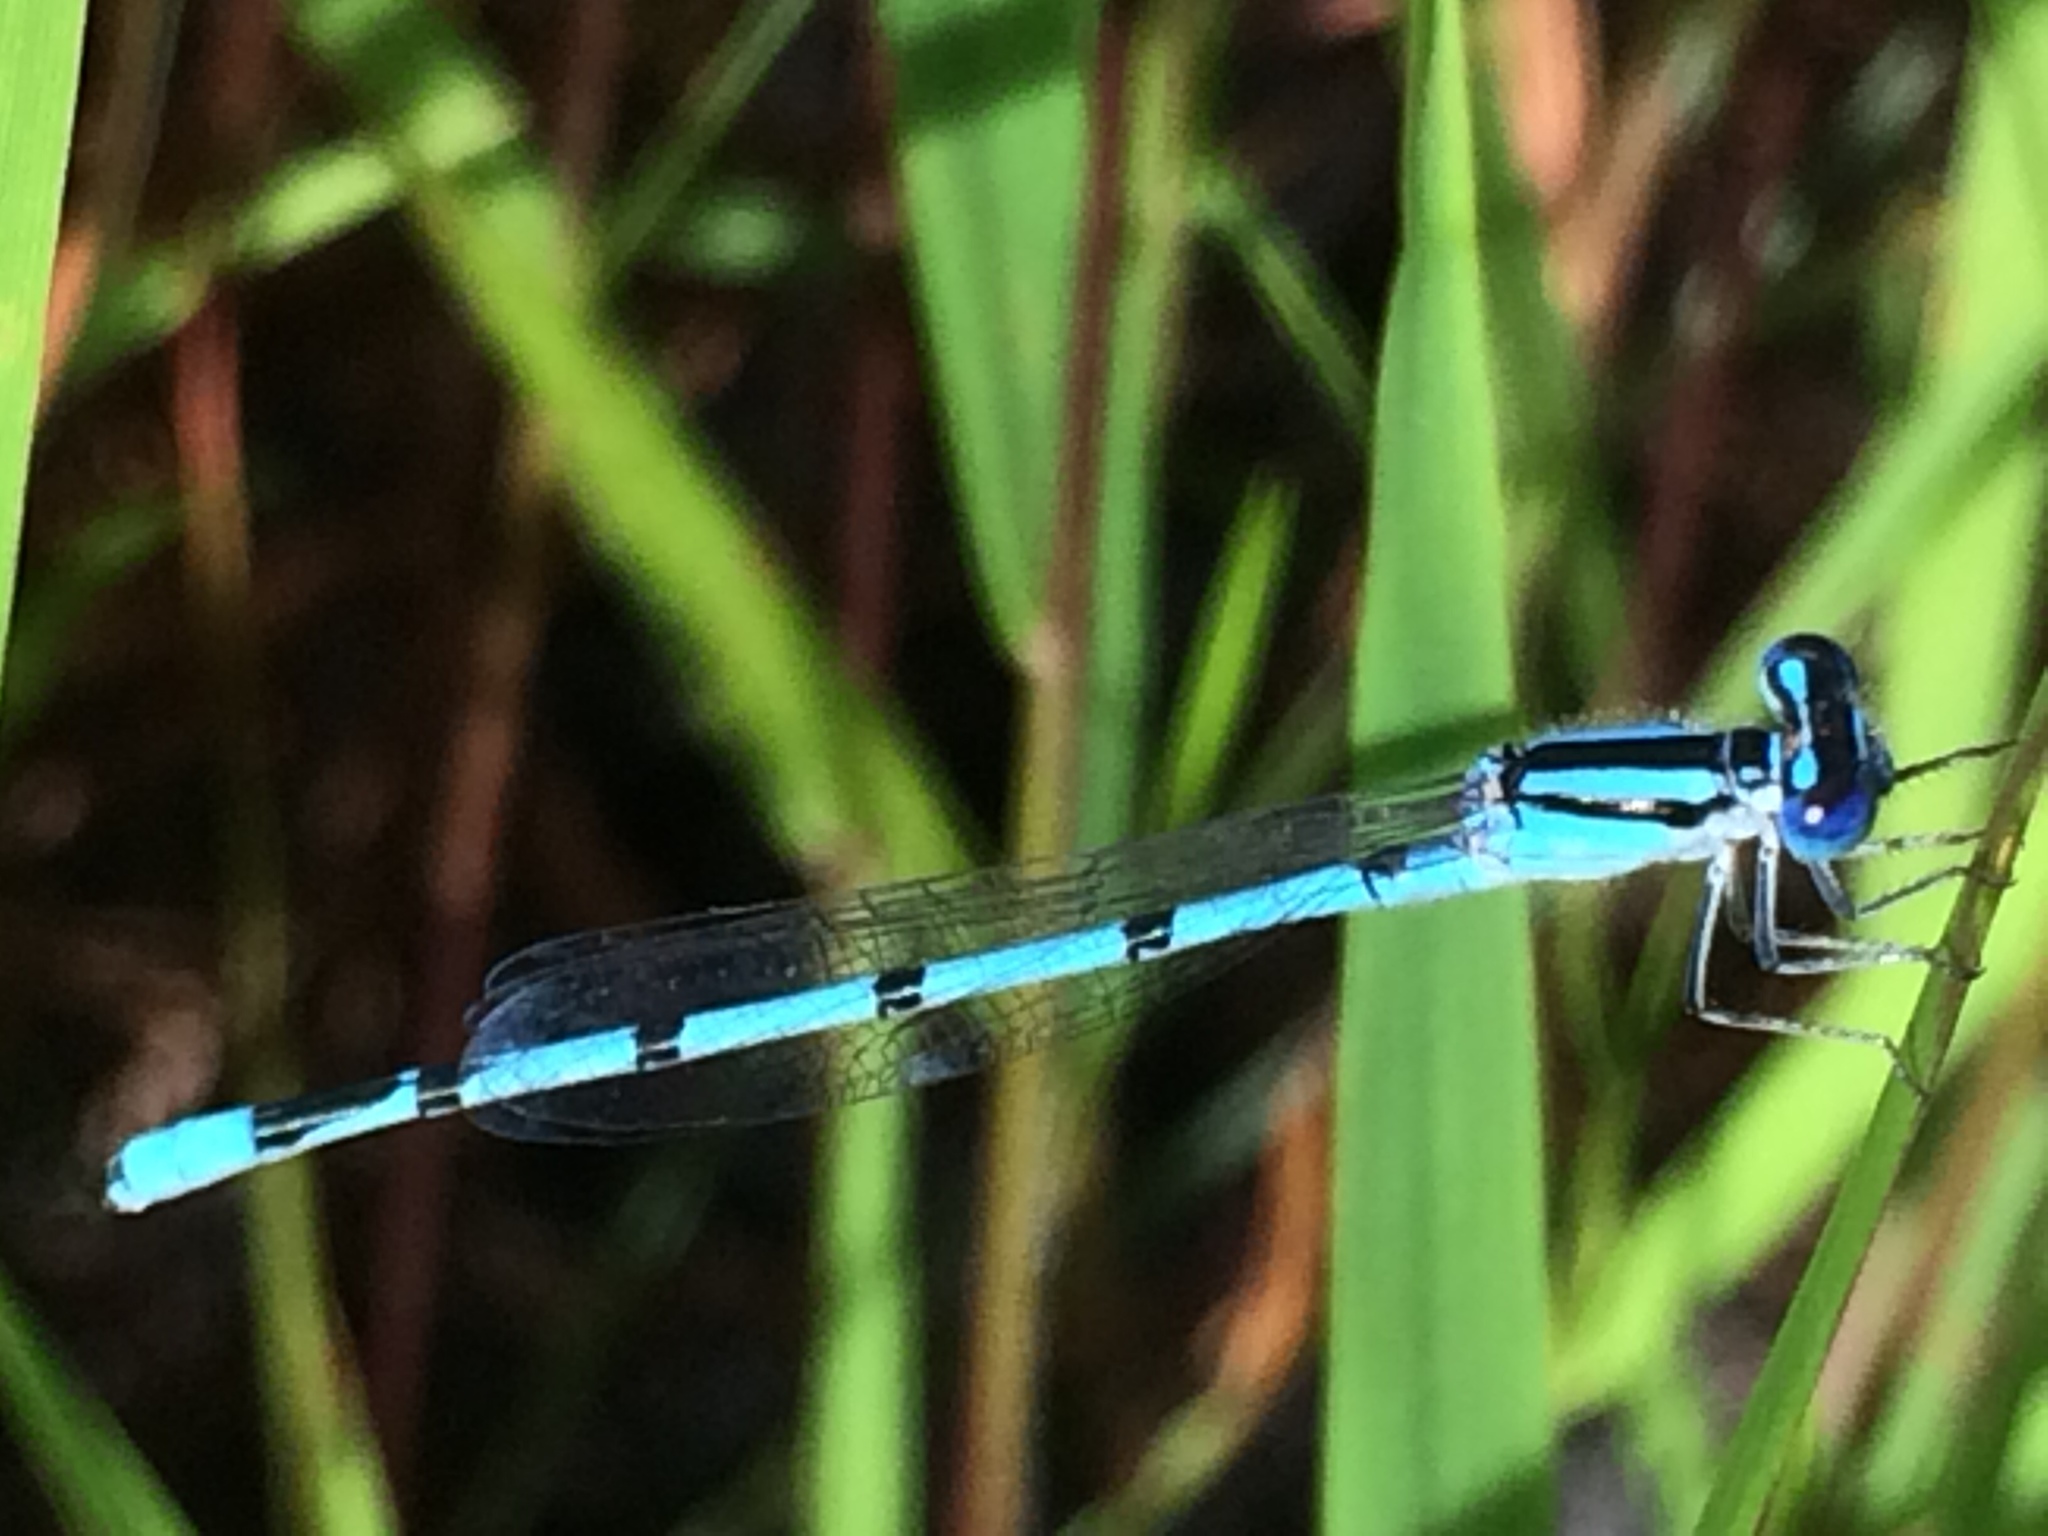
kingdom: Animalia
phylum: Arthropoda
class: Insecta
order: Odonata
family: Coenagrionidae
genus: Enallagma
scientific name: Enallagma doubledayi
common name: Atlantic bluet
